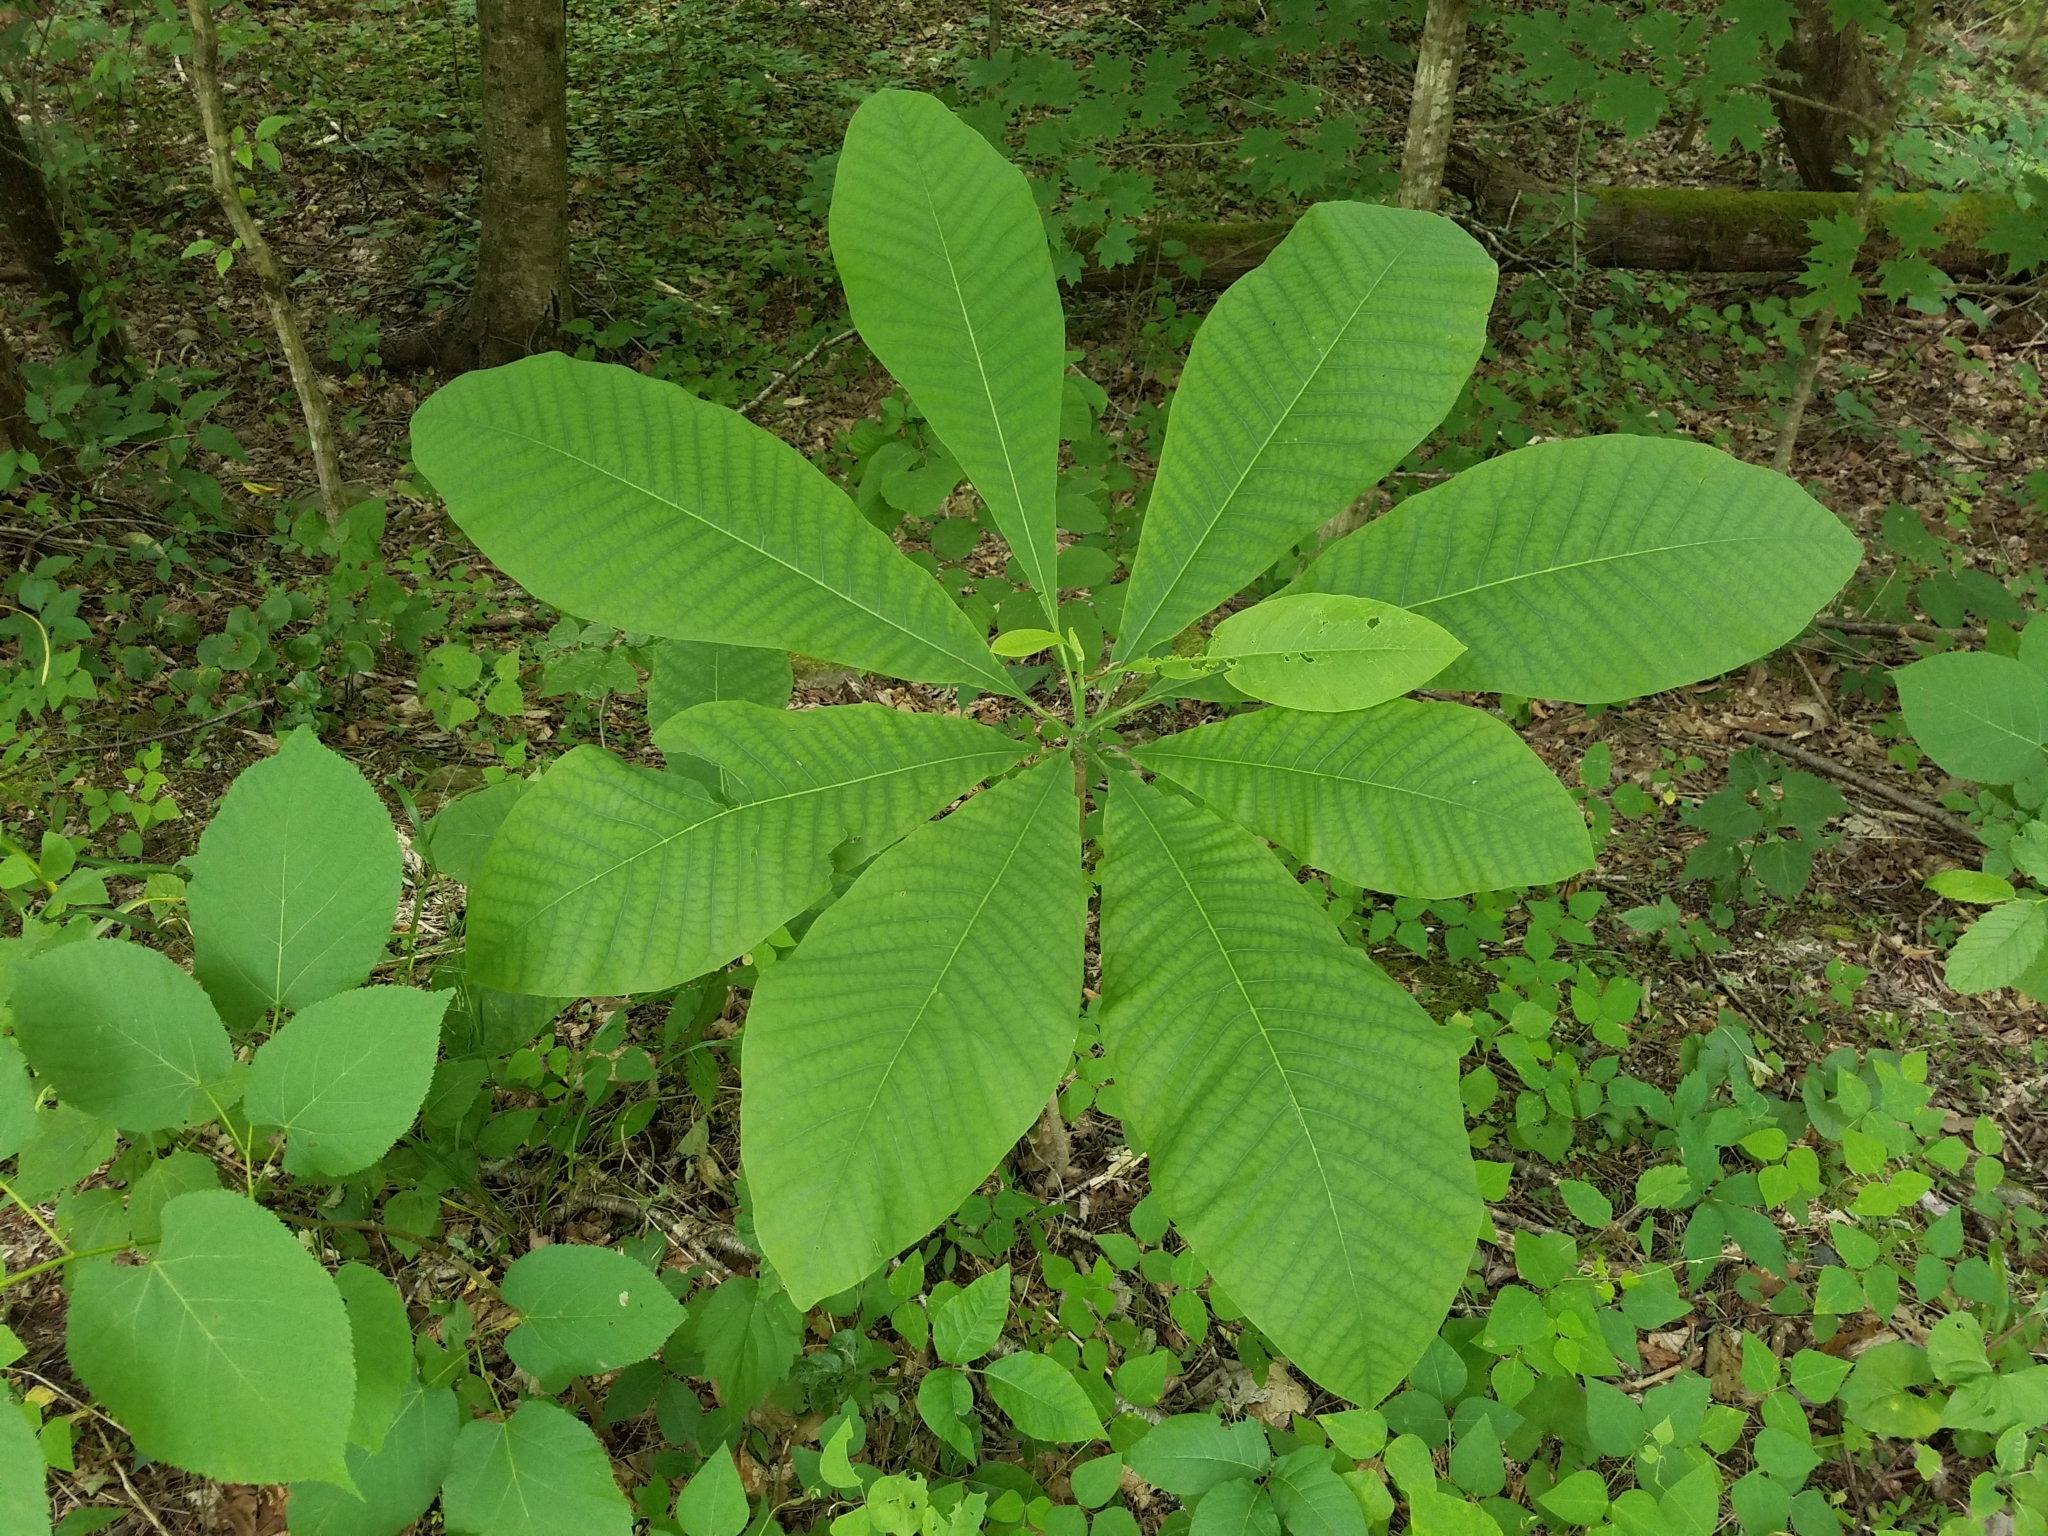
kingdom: Plantae
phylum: Tracheophyta
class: Magnoliopsida
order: Magnoliales
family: Magnoliaceae
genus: Magnolia
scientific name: Magnolia tripetala
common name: Umbrella magnolia
